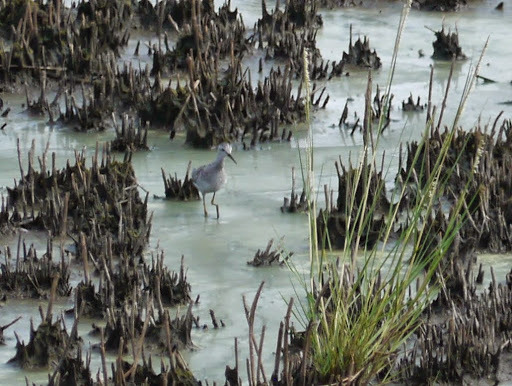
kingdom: Animalia
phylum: Chordata
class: Aves
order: Charadriiformes
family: Scolopacidae
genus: Tringa
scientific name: Tringa flavipes
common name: Lesser yellowlegs
